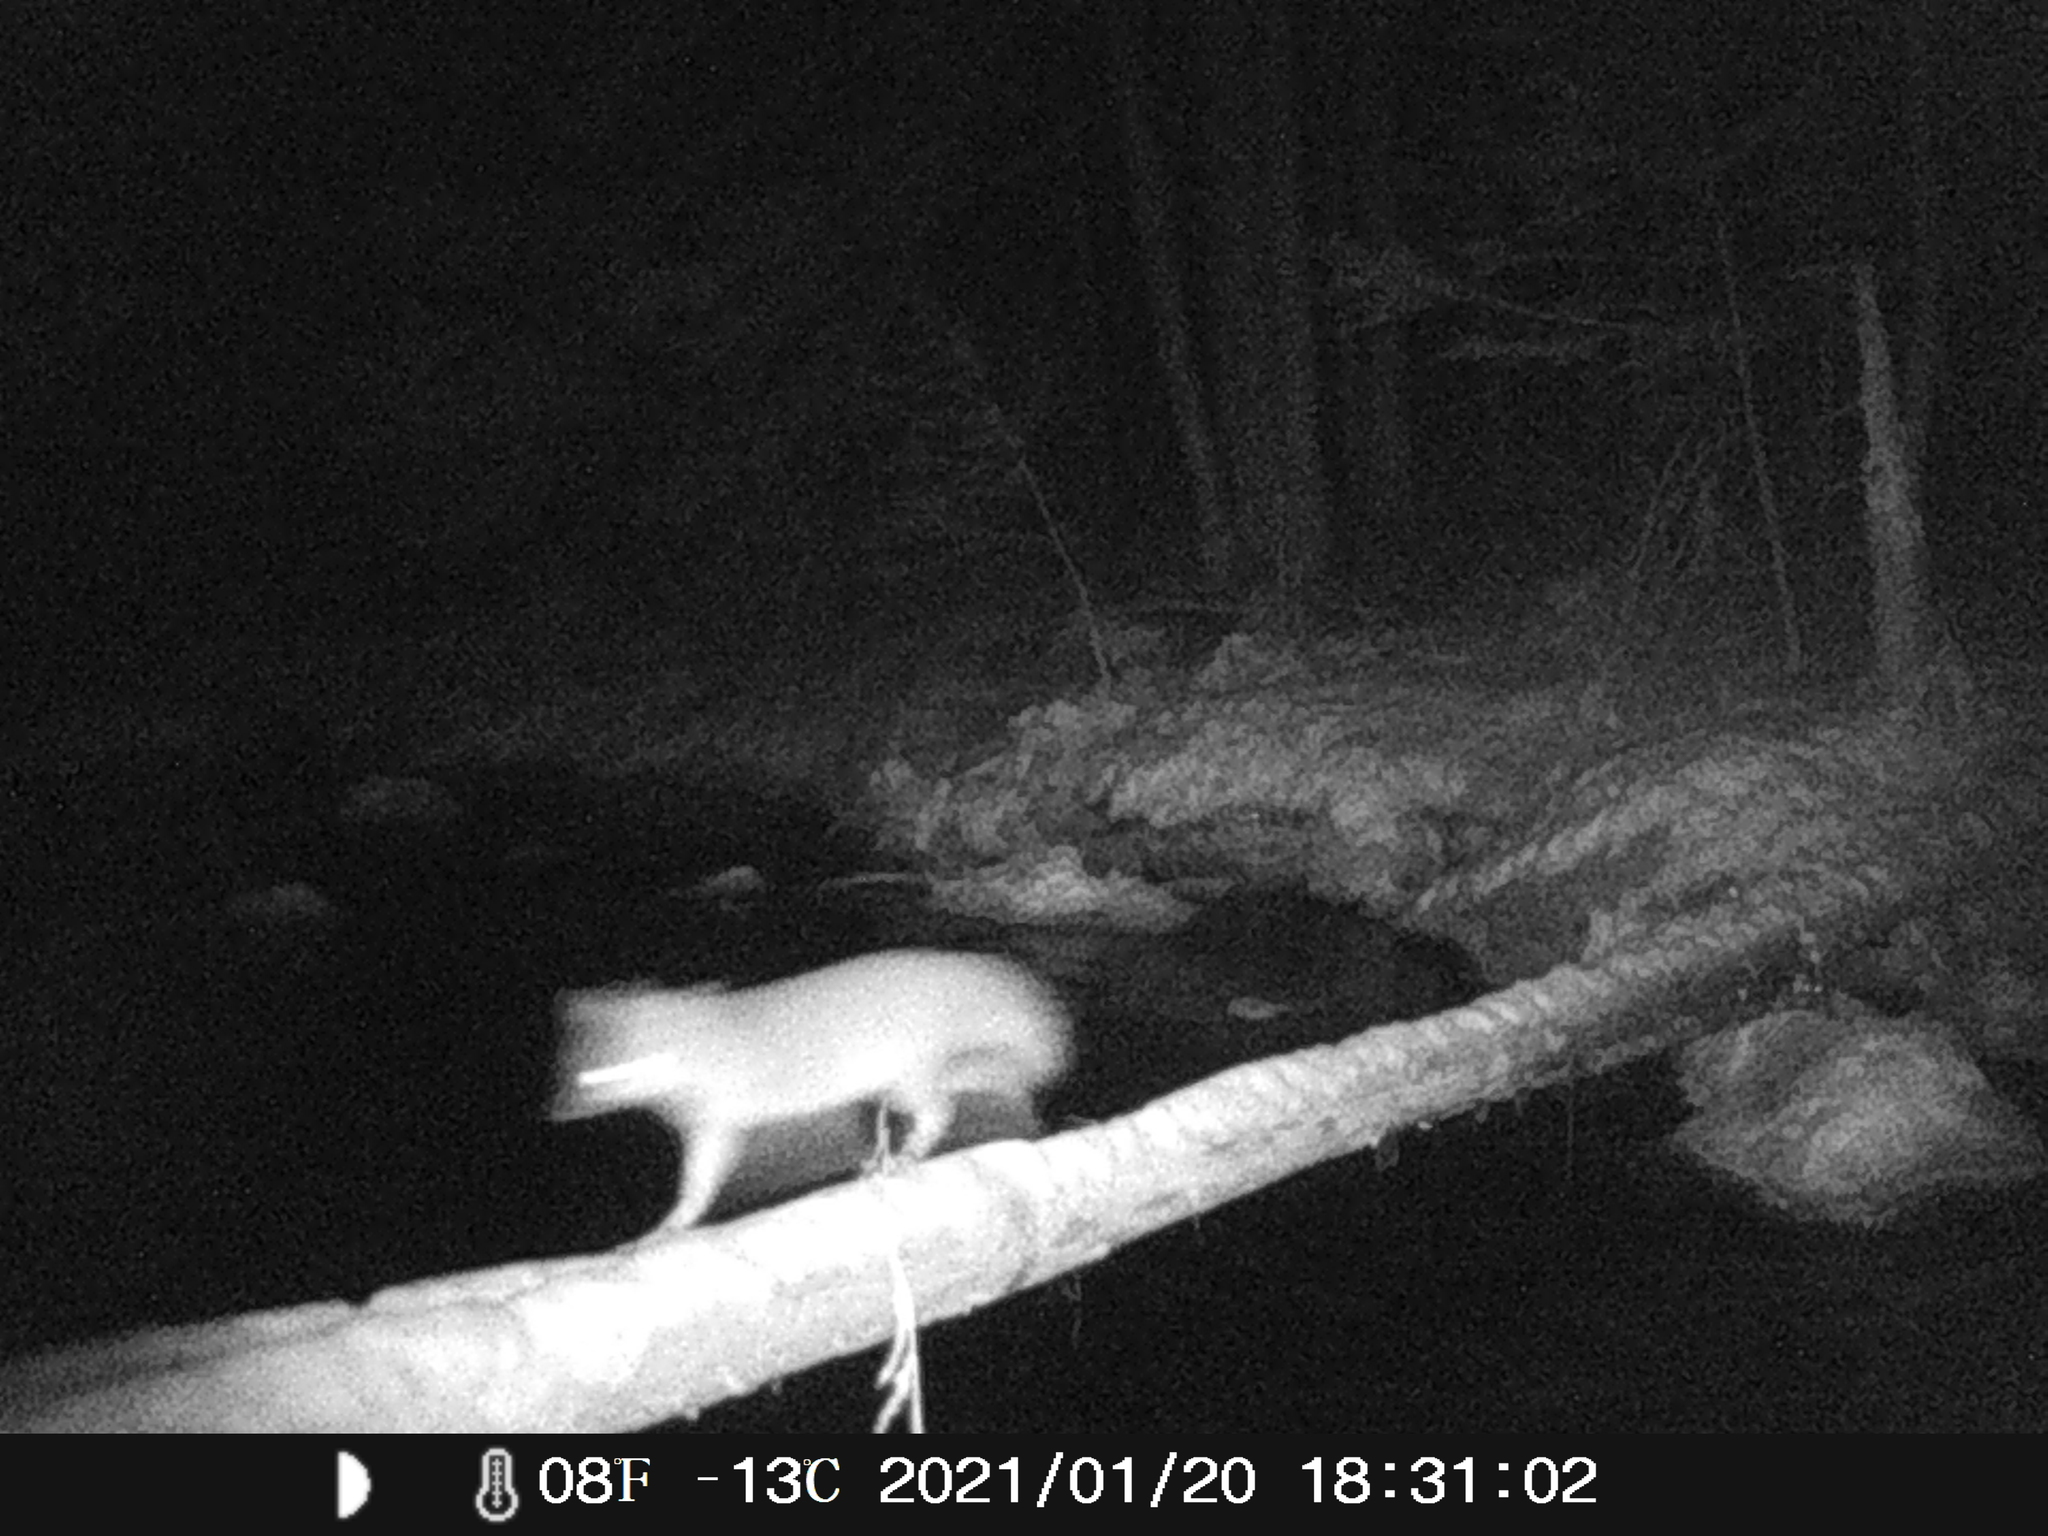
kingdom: Animalia
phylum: Chordata
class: Mammalia
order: Carnivora
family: Canidae
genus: Urocyon
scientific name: Urocyon cinereoargenteus
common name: Gray fox
